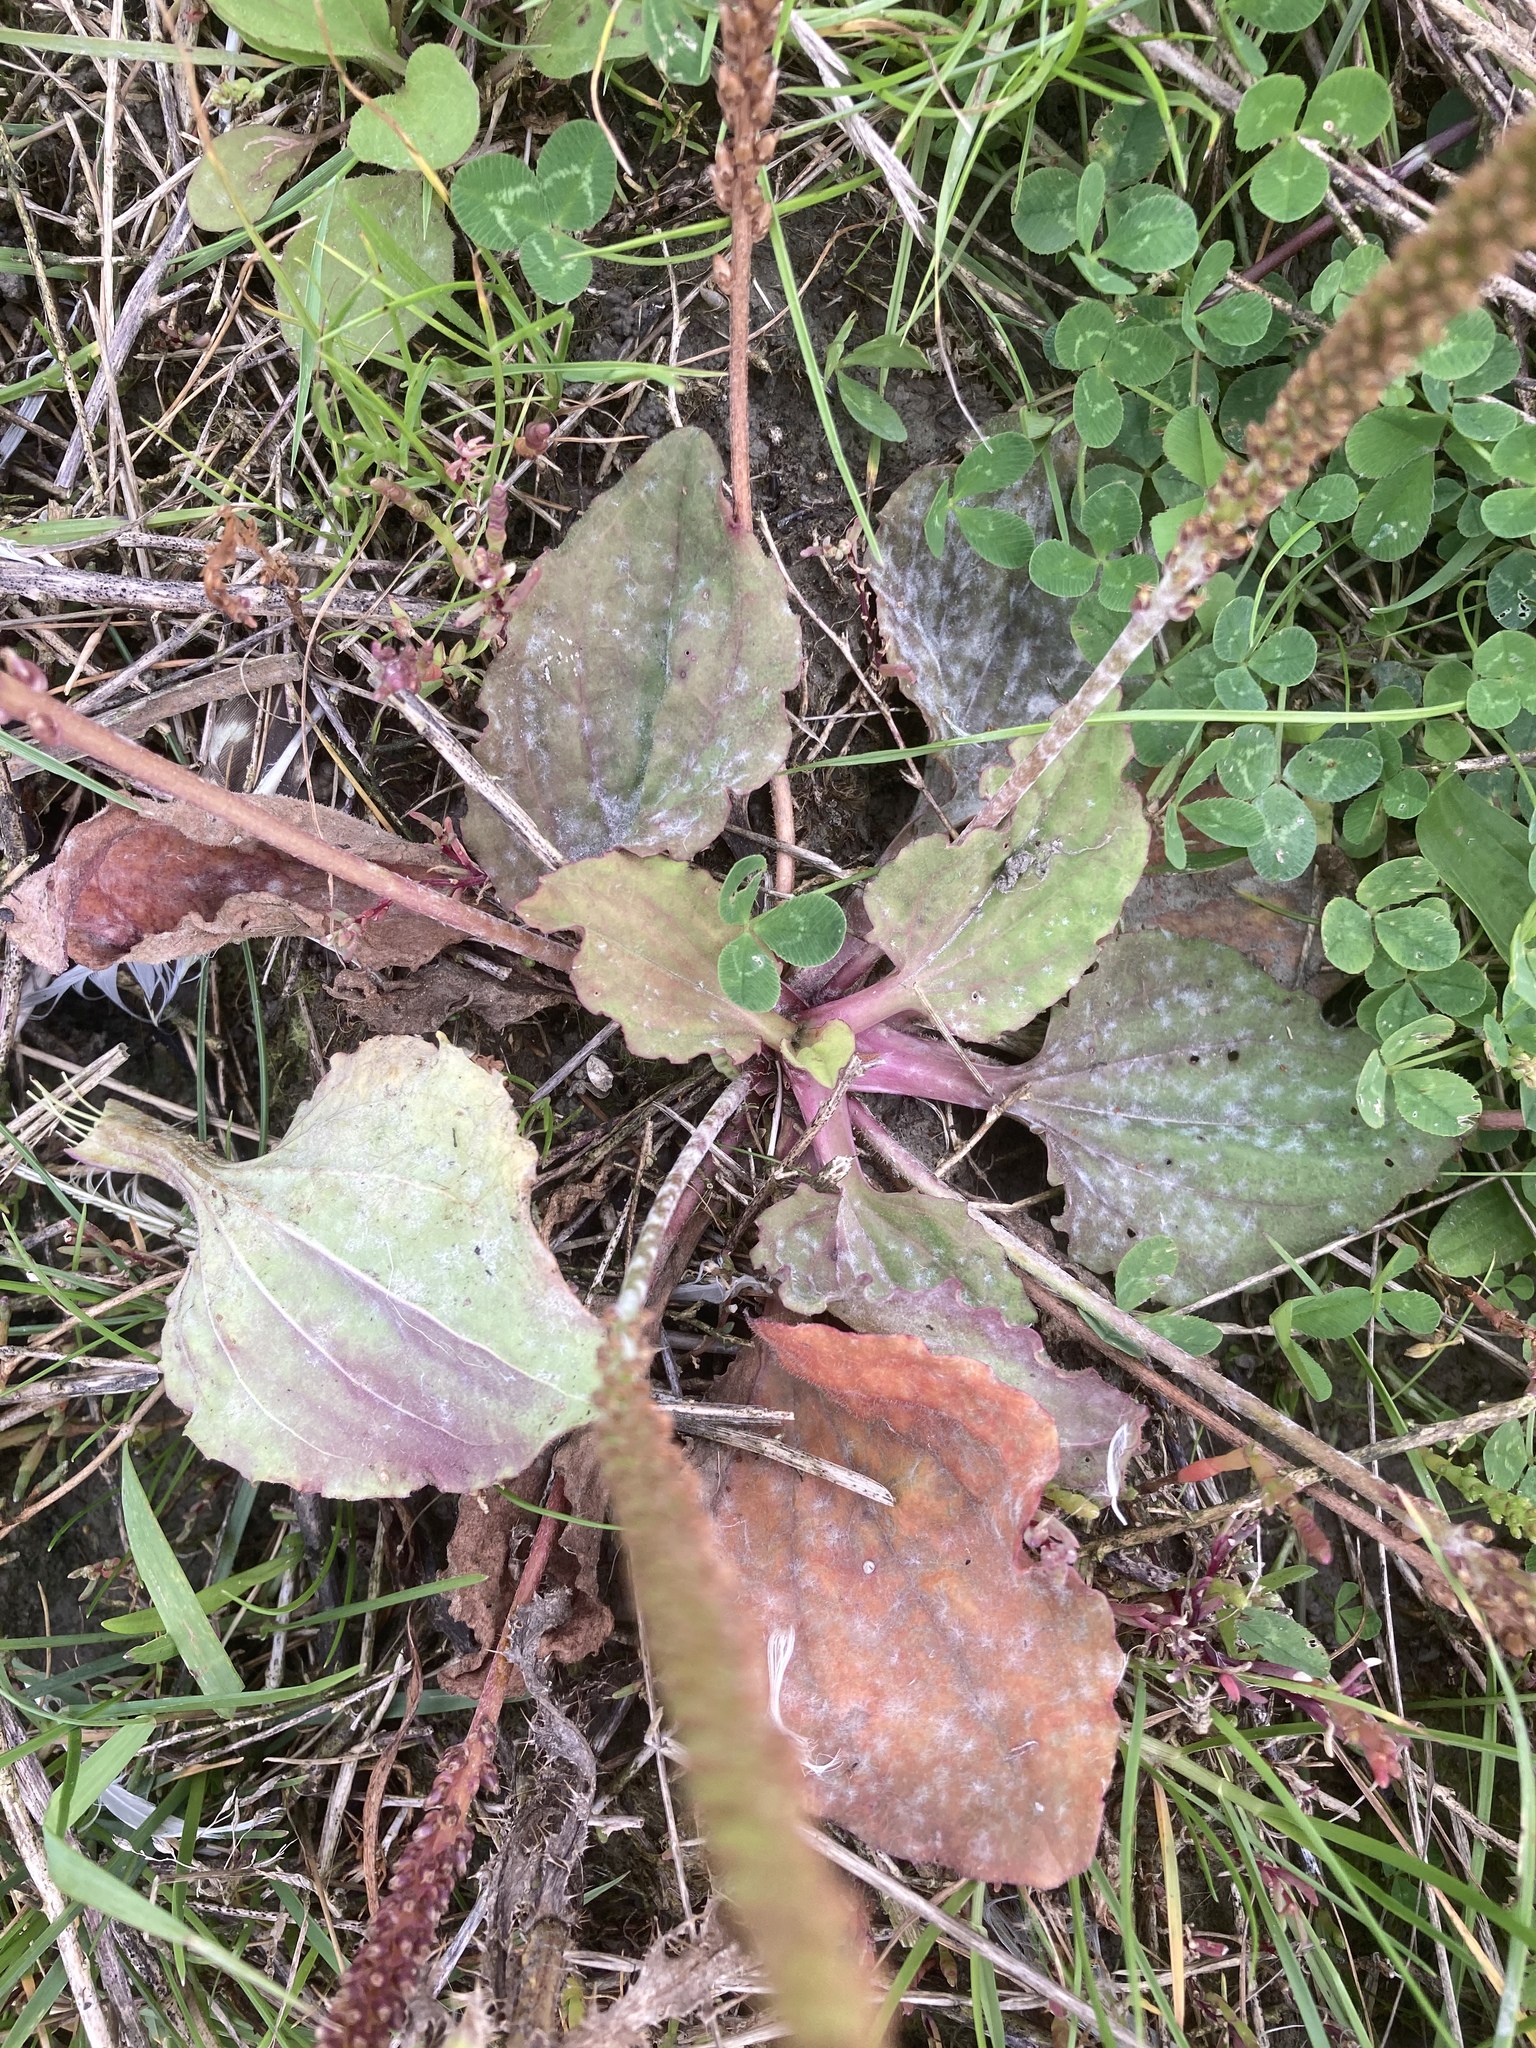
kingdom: Plantae
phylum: Tracheophyta
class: Magnoliopsida
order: Lamiales
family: Plantaginaceae
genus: Plantago
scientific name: Plantago uliginosa
